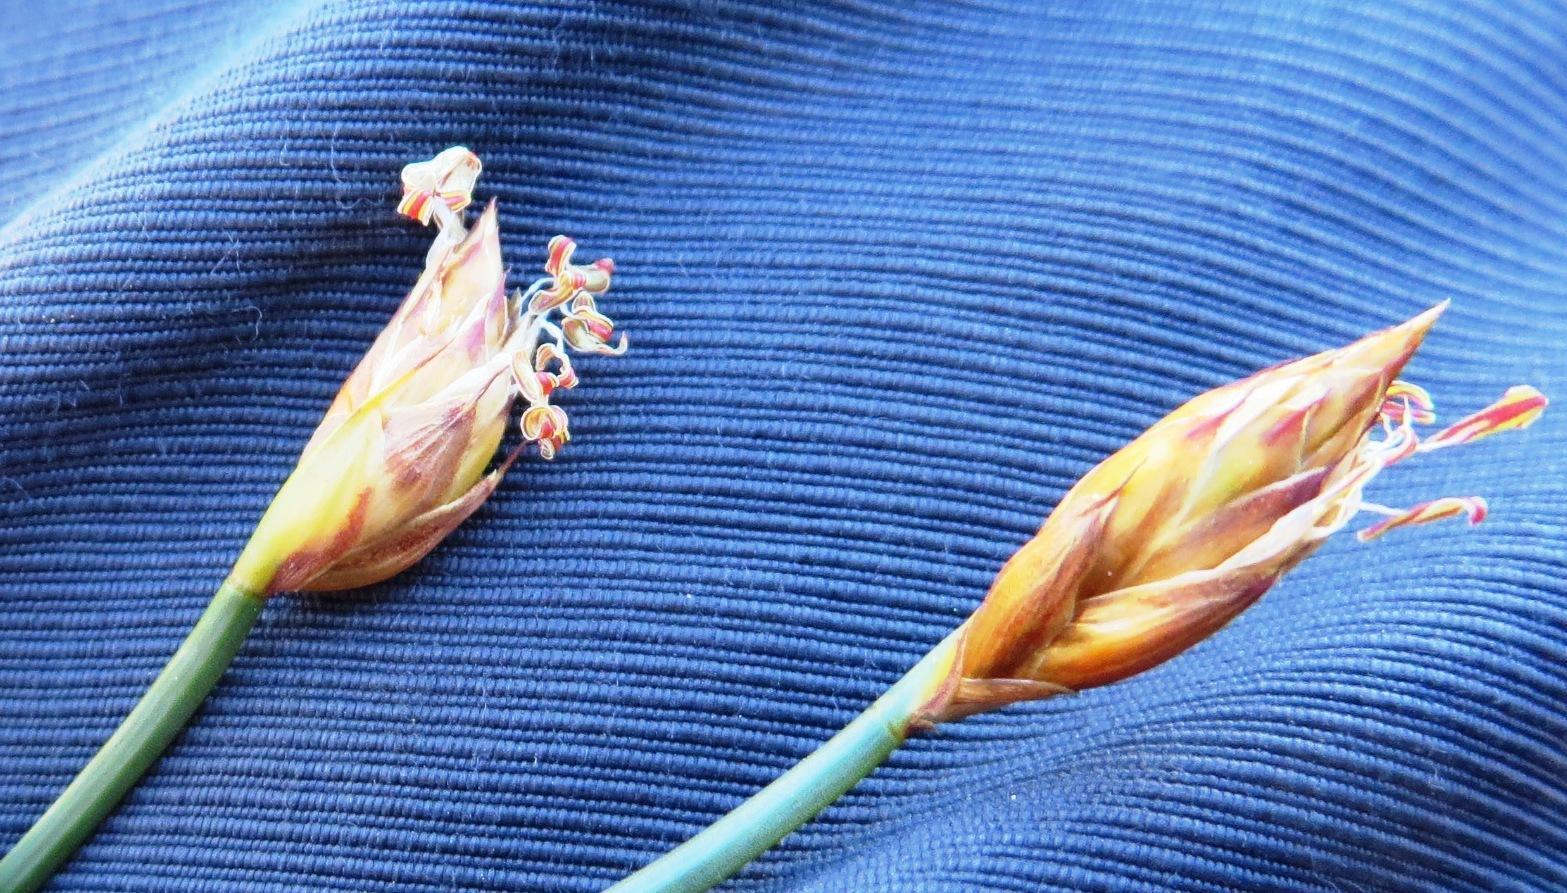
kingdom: Plantae
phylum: Tracheophyta
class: Liliopsida
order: Poales
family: Restionaceae
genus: Hypodiscus
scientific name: Hypodiscus willdenowia
